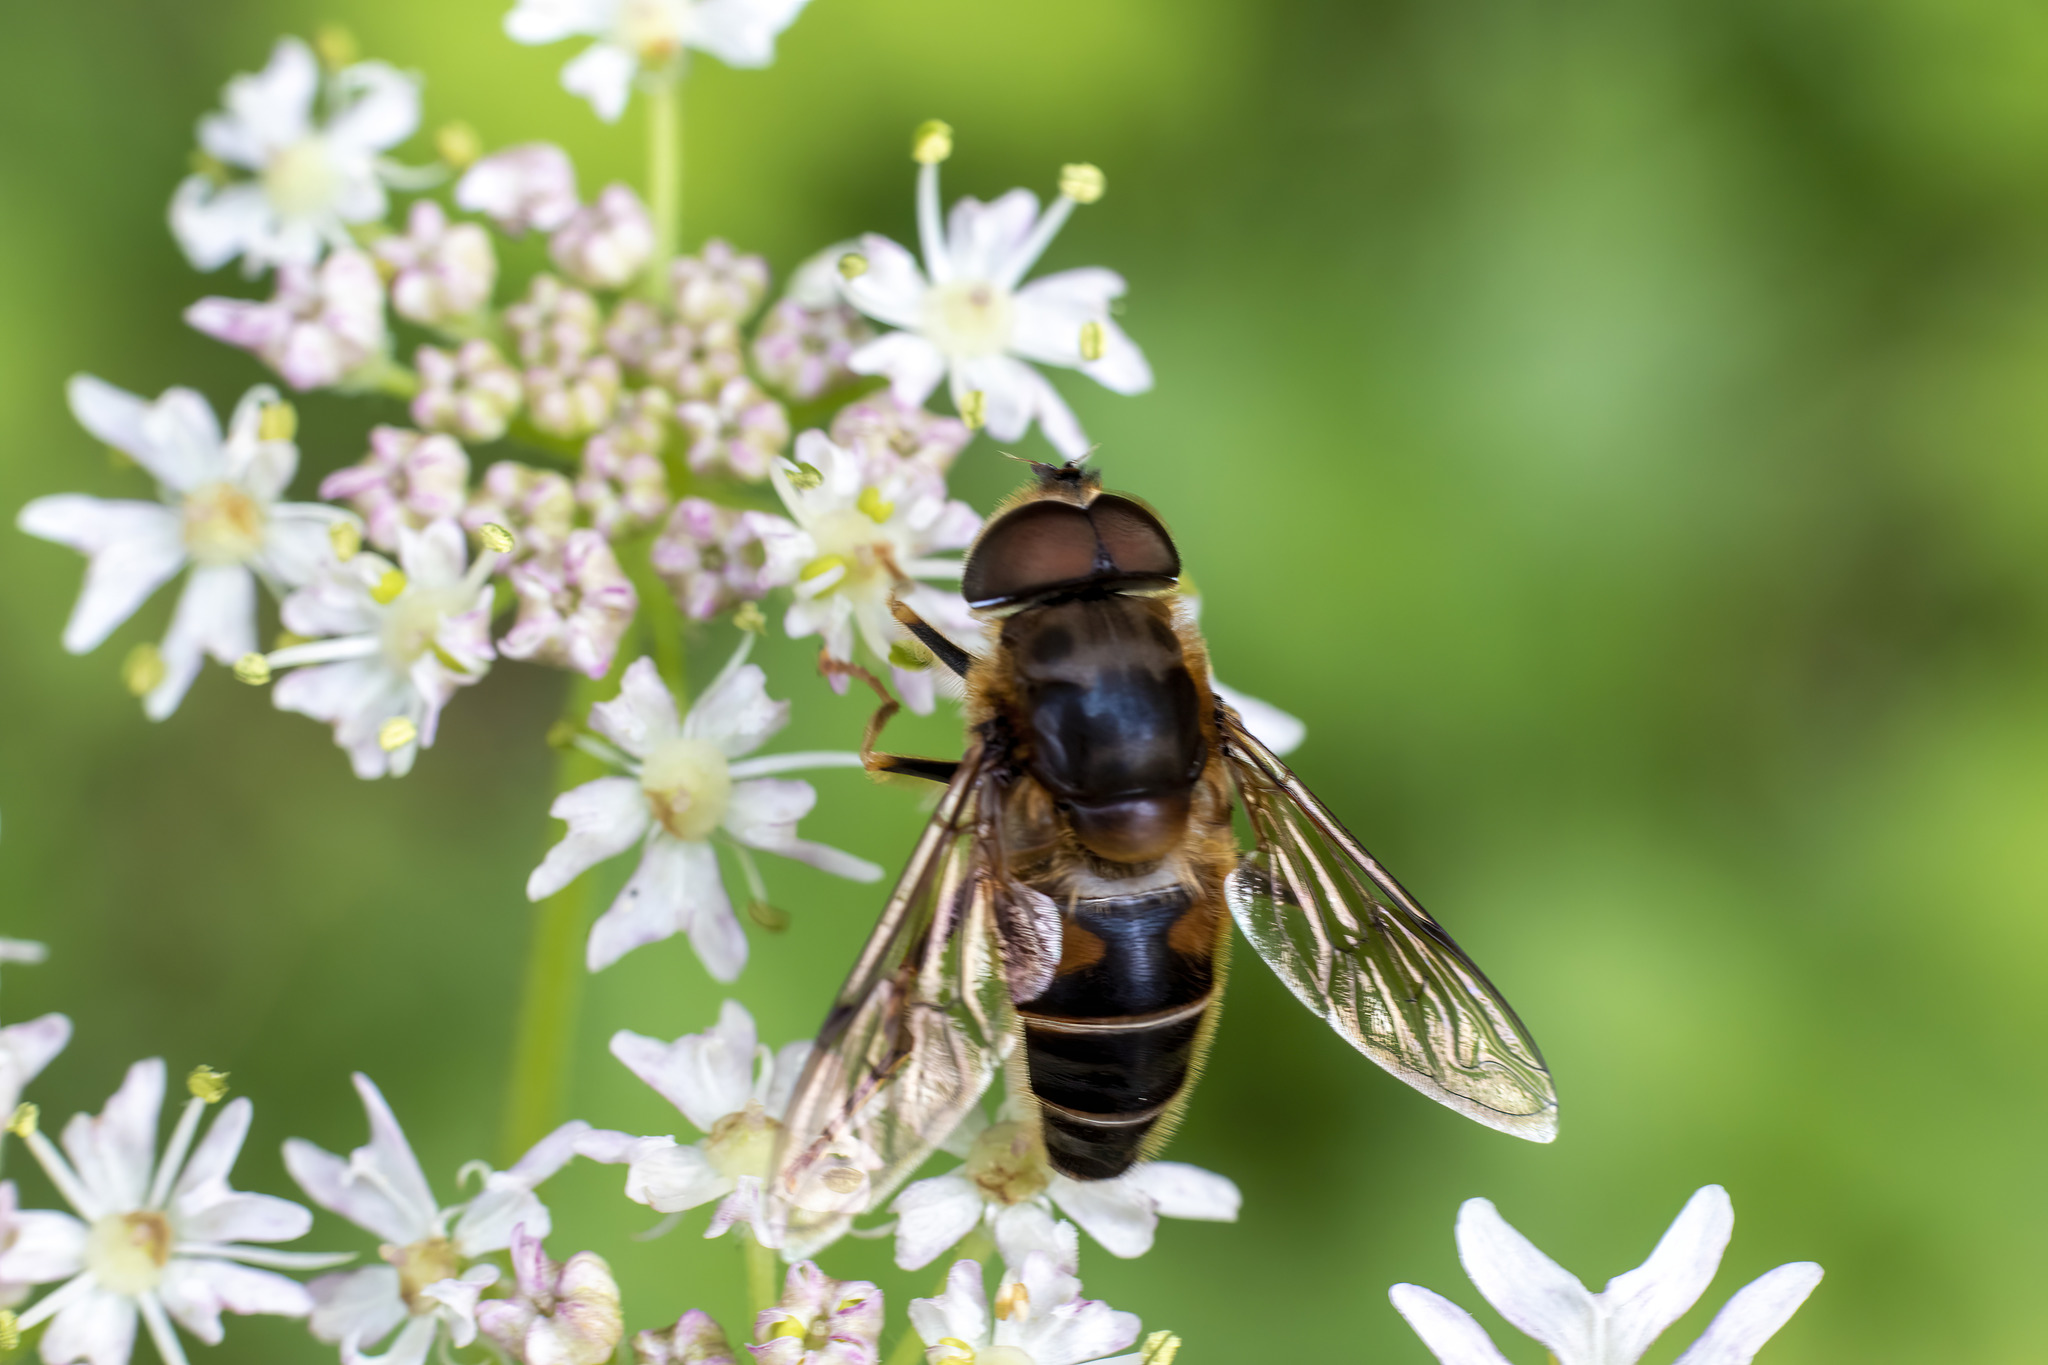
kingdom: Animalia
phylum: Arthropoda
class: Insecta
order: Diptera
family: Syrphidae
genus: Eristalis
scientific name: Eristalis pertinax
